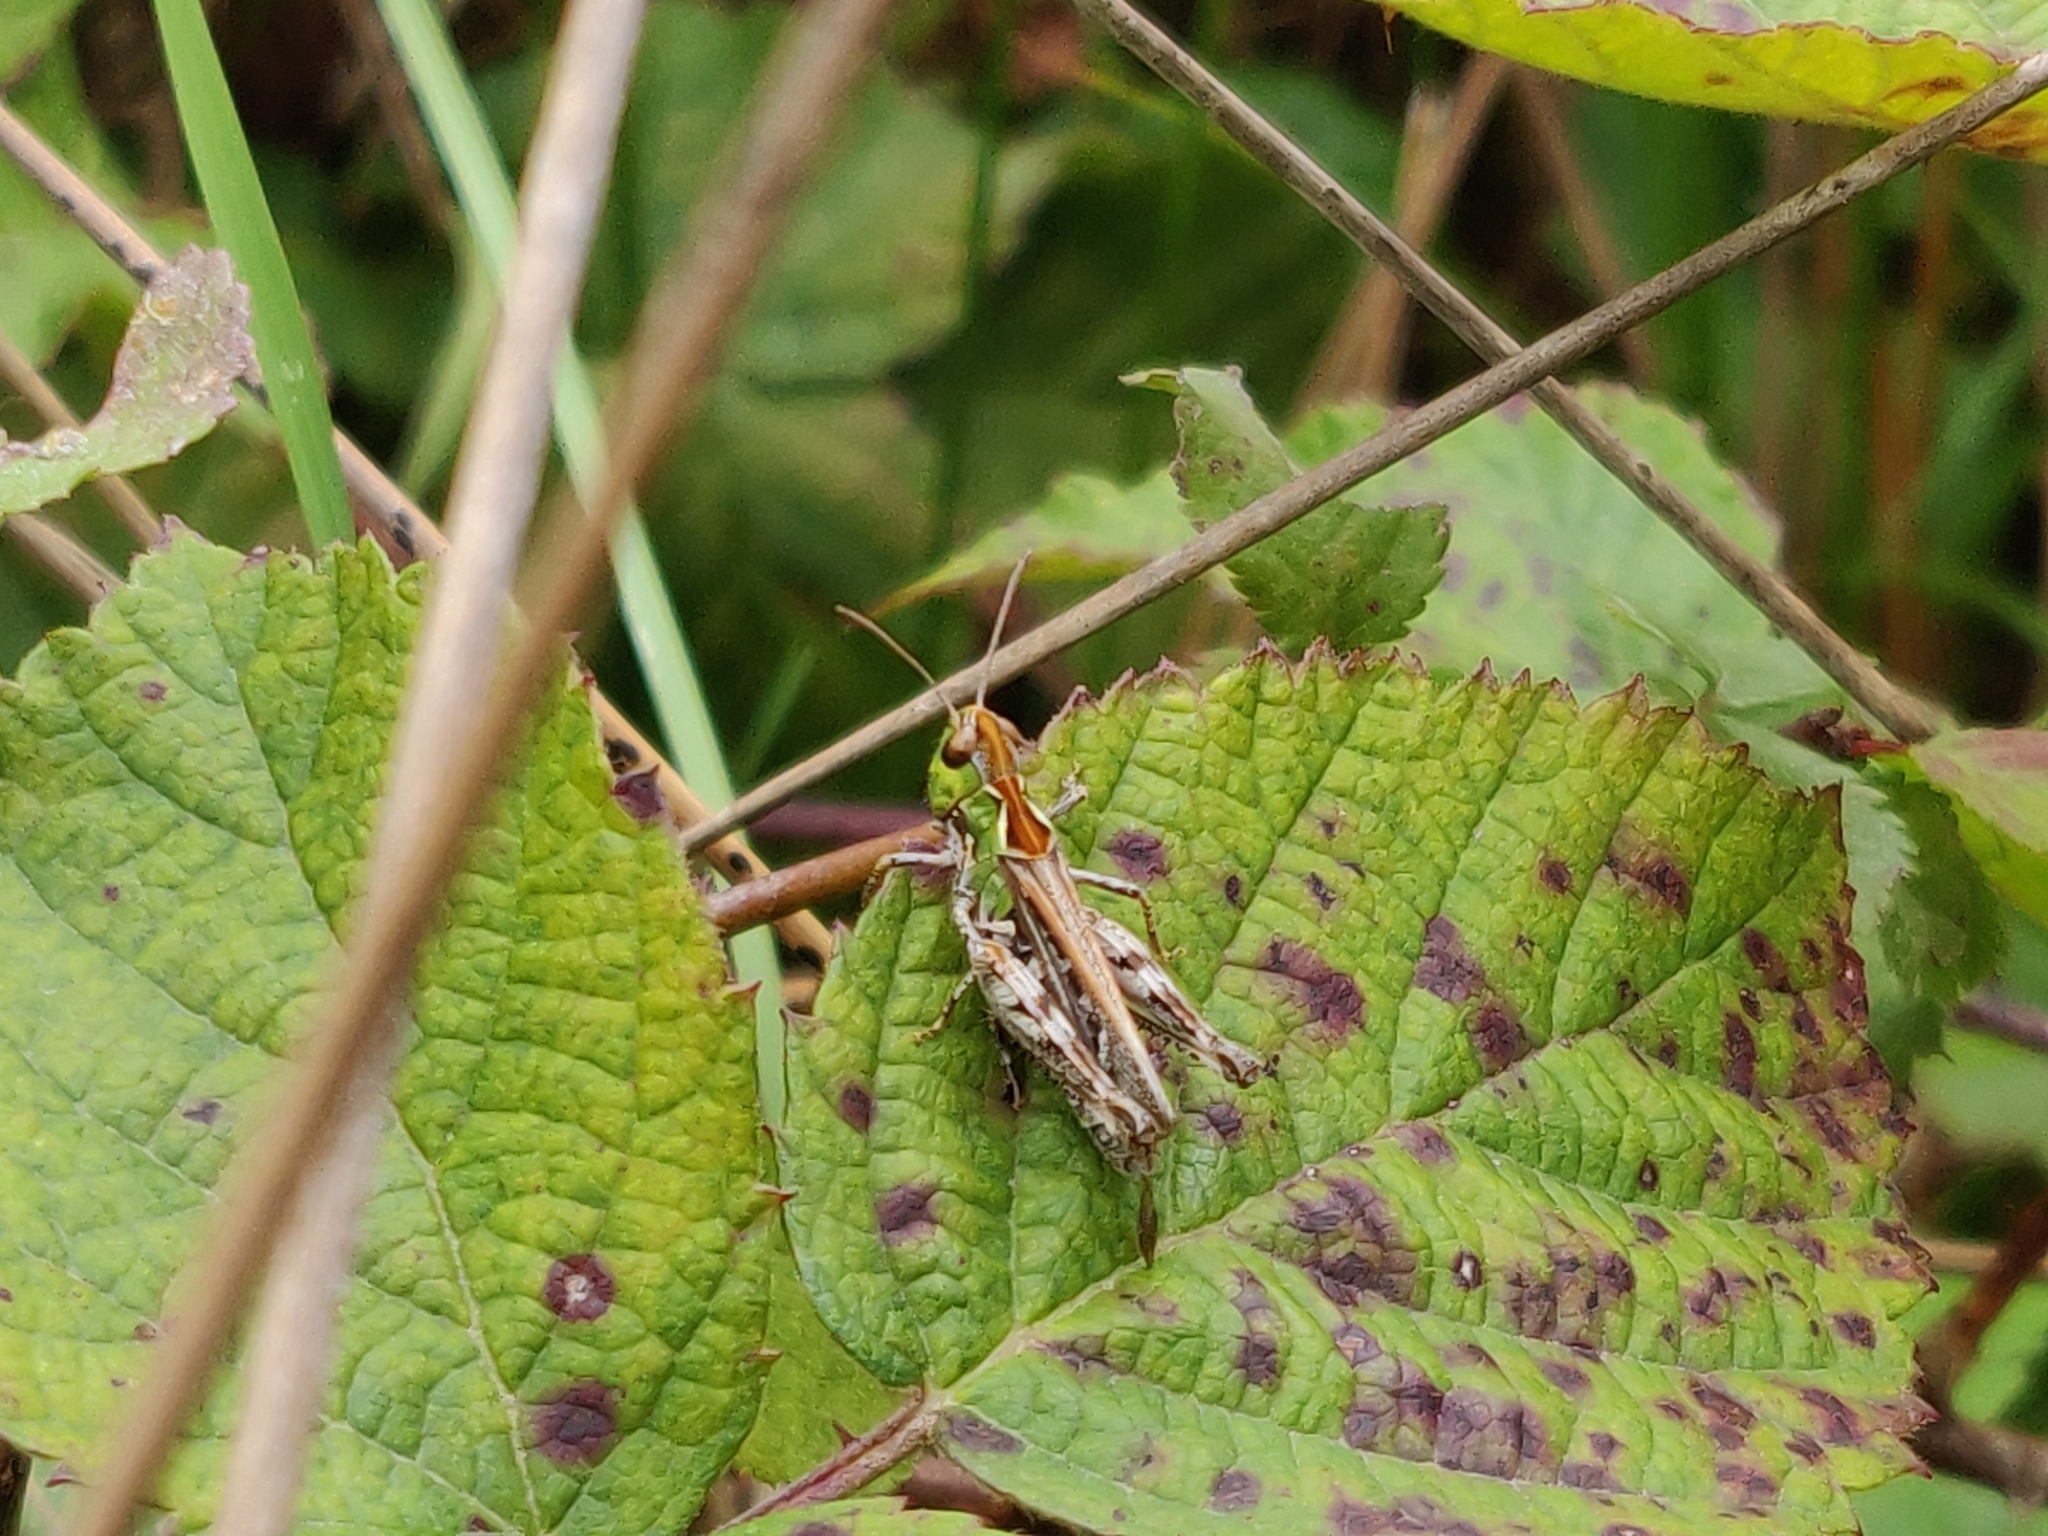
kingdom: Animalia
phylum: Arthropoda
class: Insecta
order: Orthoptera
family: Acrididae
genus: Myrmeleotettix
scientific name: Myrmeleotettix maculatus
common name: Mottled grasshopper
